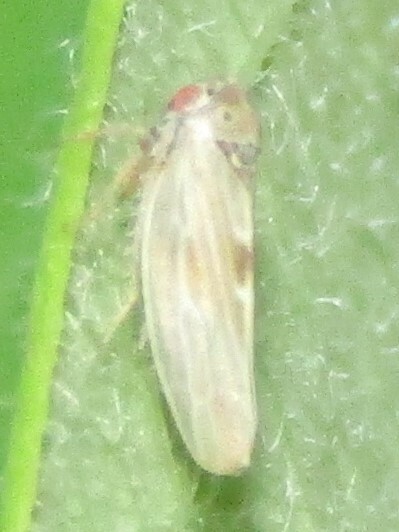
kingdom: Animalia
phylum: Arthropoda
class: Insecta
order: Hemiptera
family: Cicadellidae
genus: Agalliopsis
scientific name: Agalliopsis ancistra
